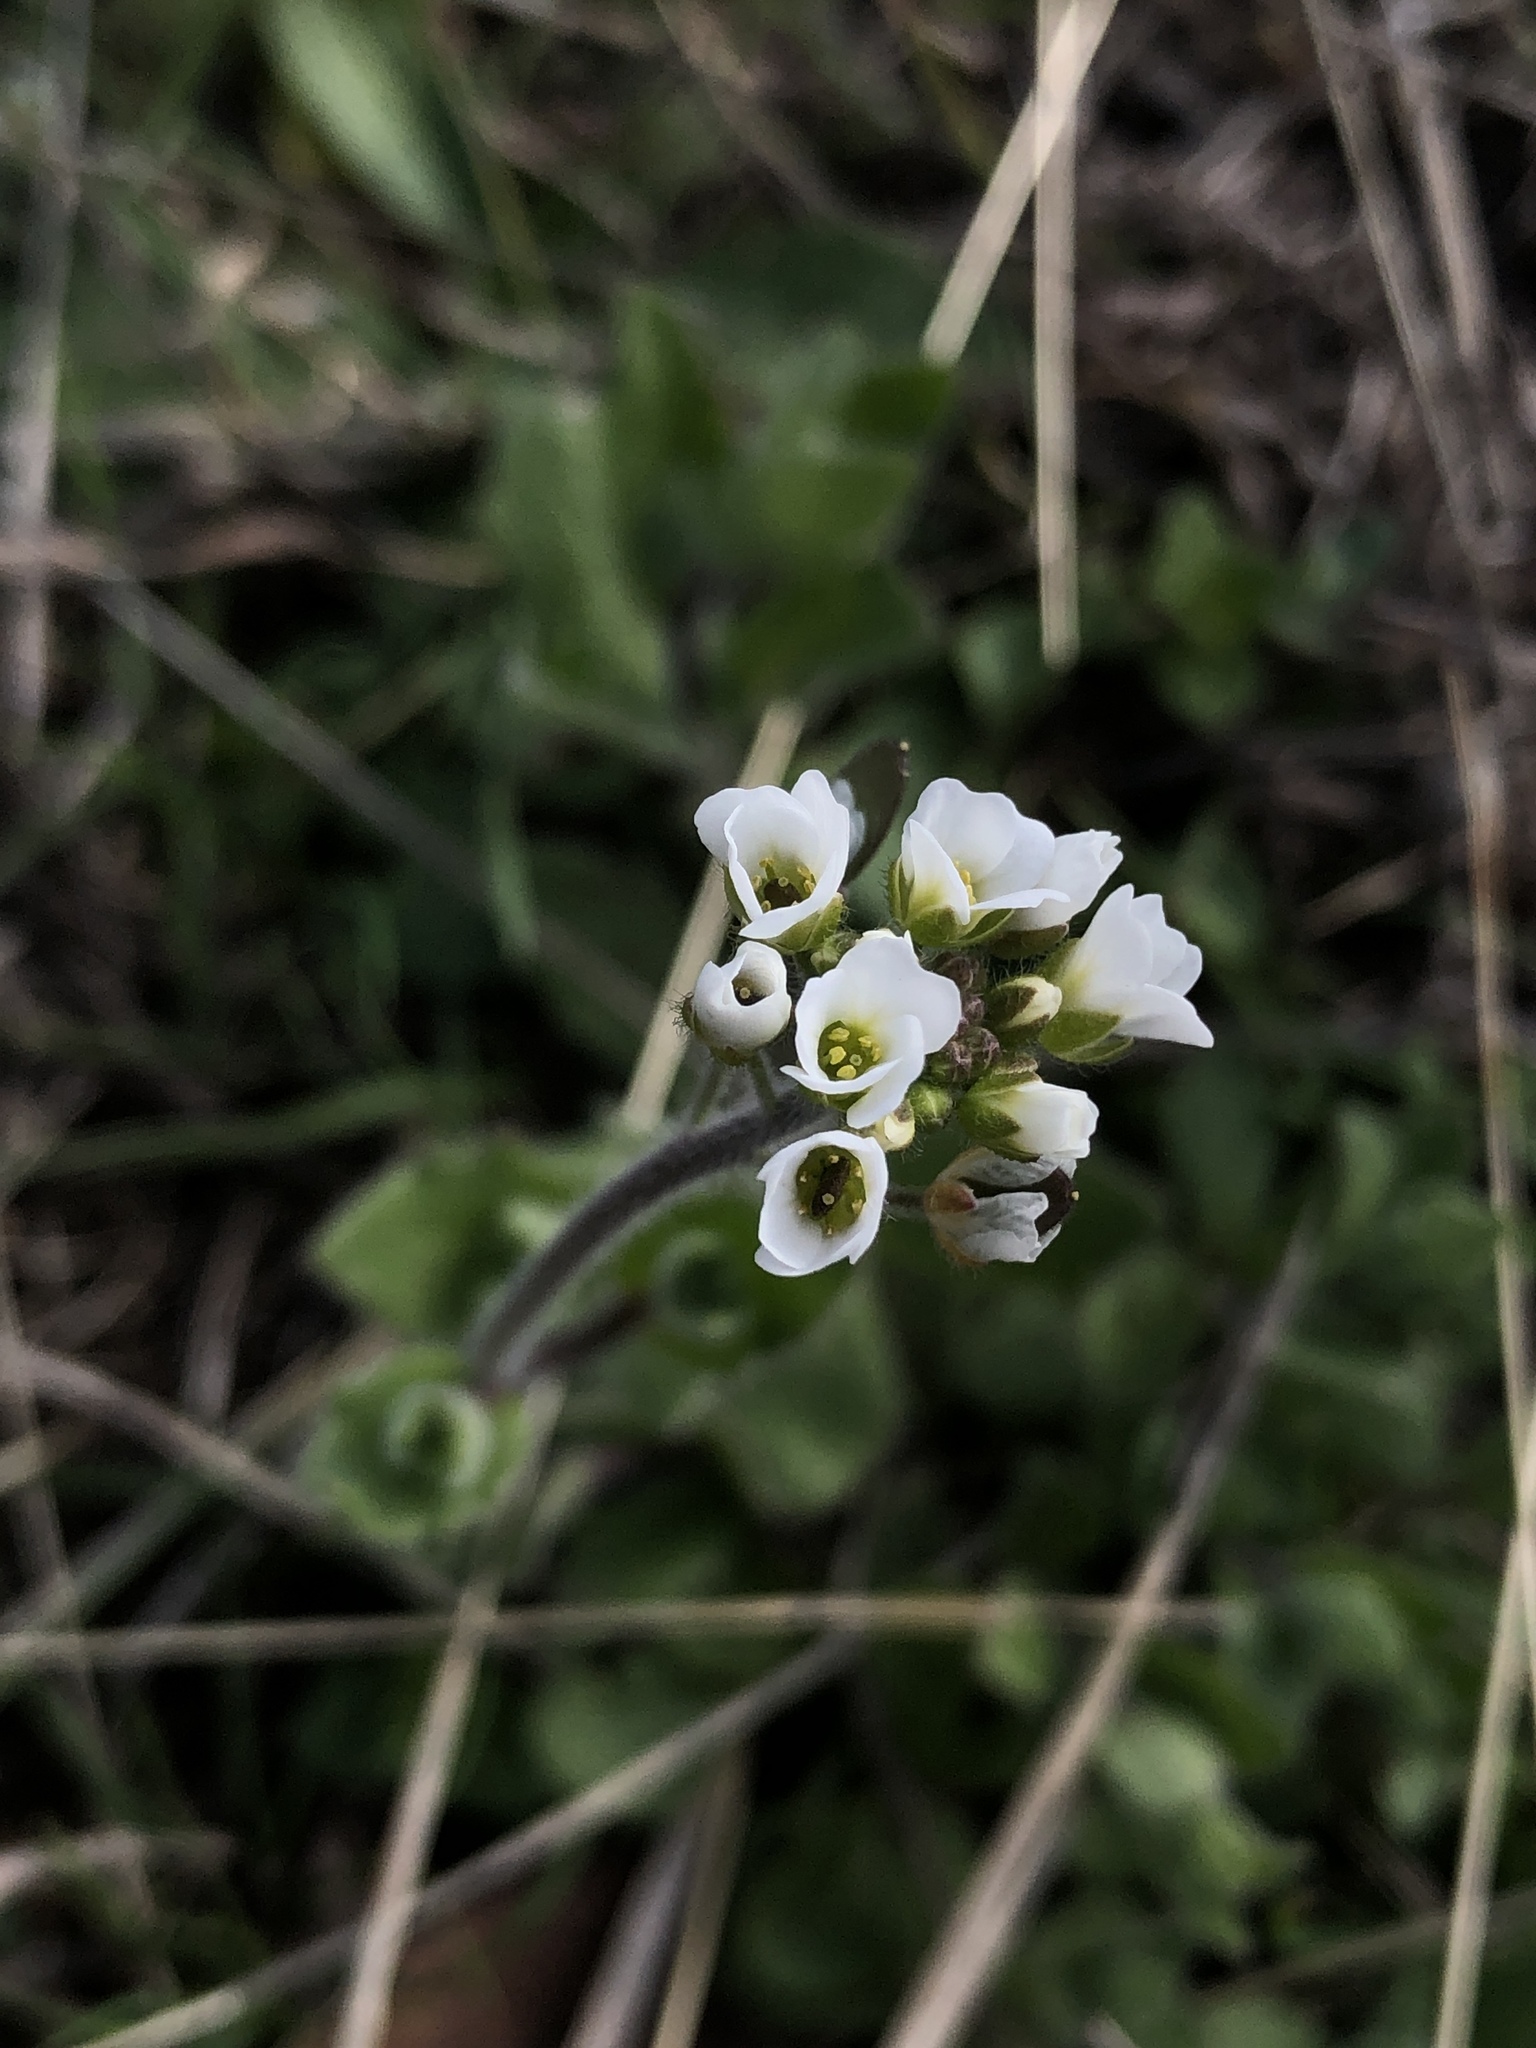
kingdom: Plantae
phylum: Tracheophyta
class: Magnoliopsida
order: Brassicales
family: Brassicaceae
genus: Tomostima
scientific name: Tomostima platycarpa
